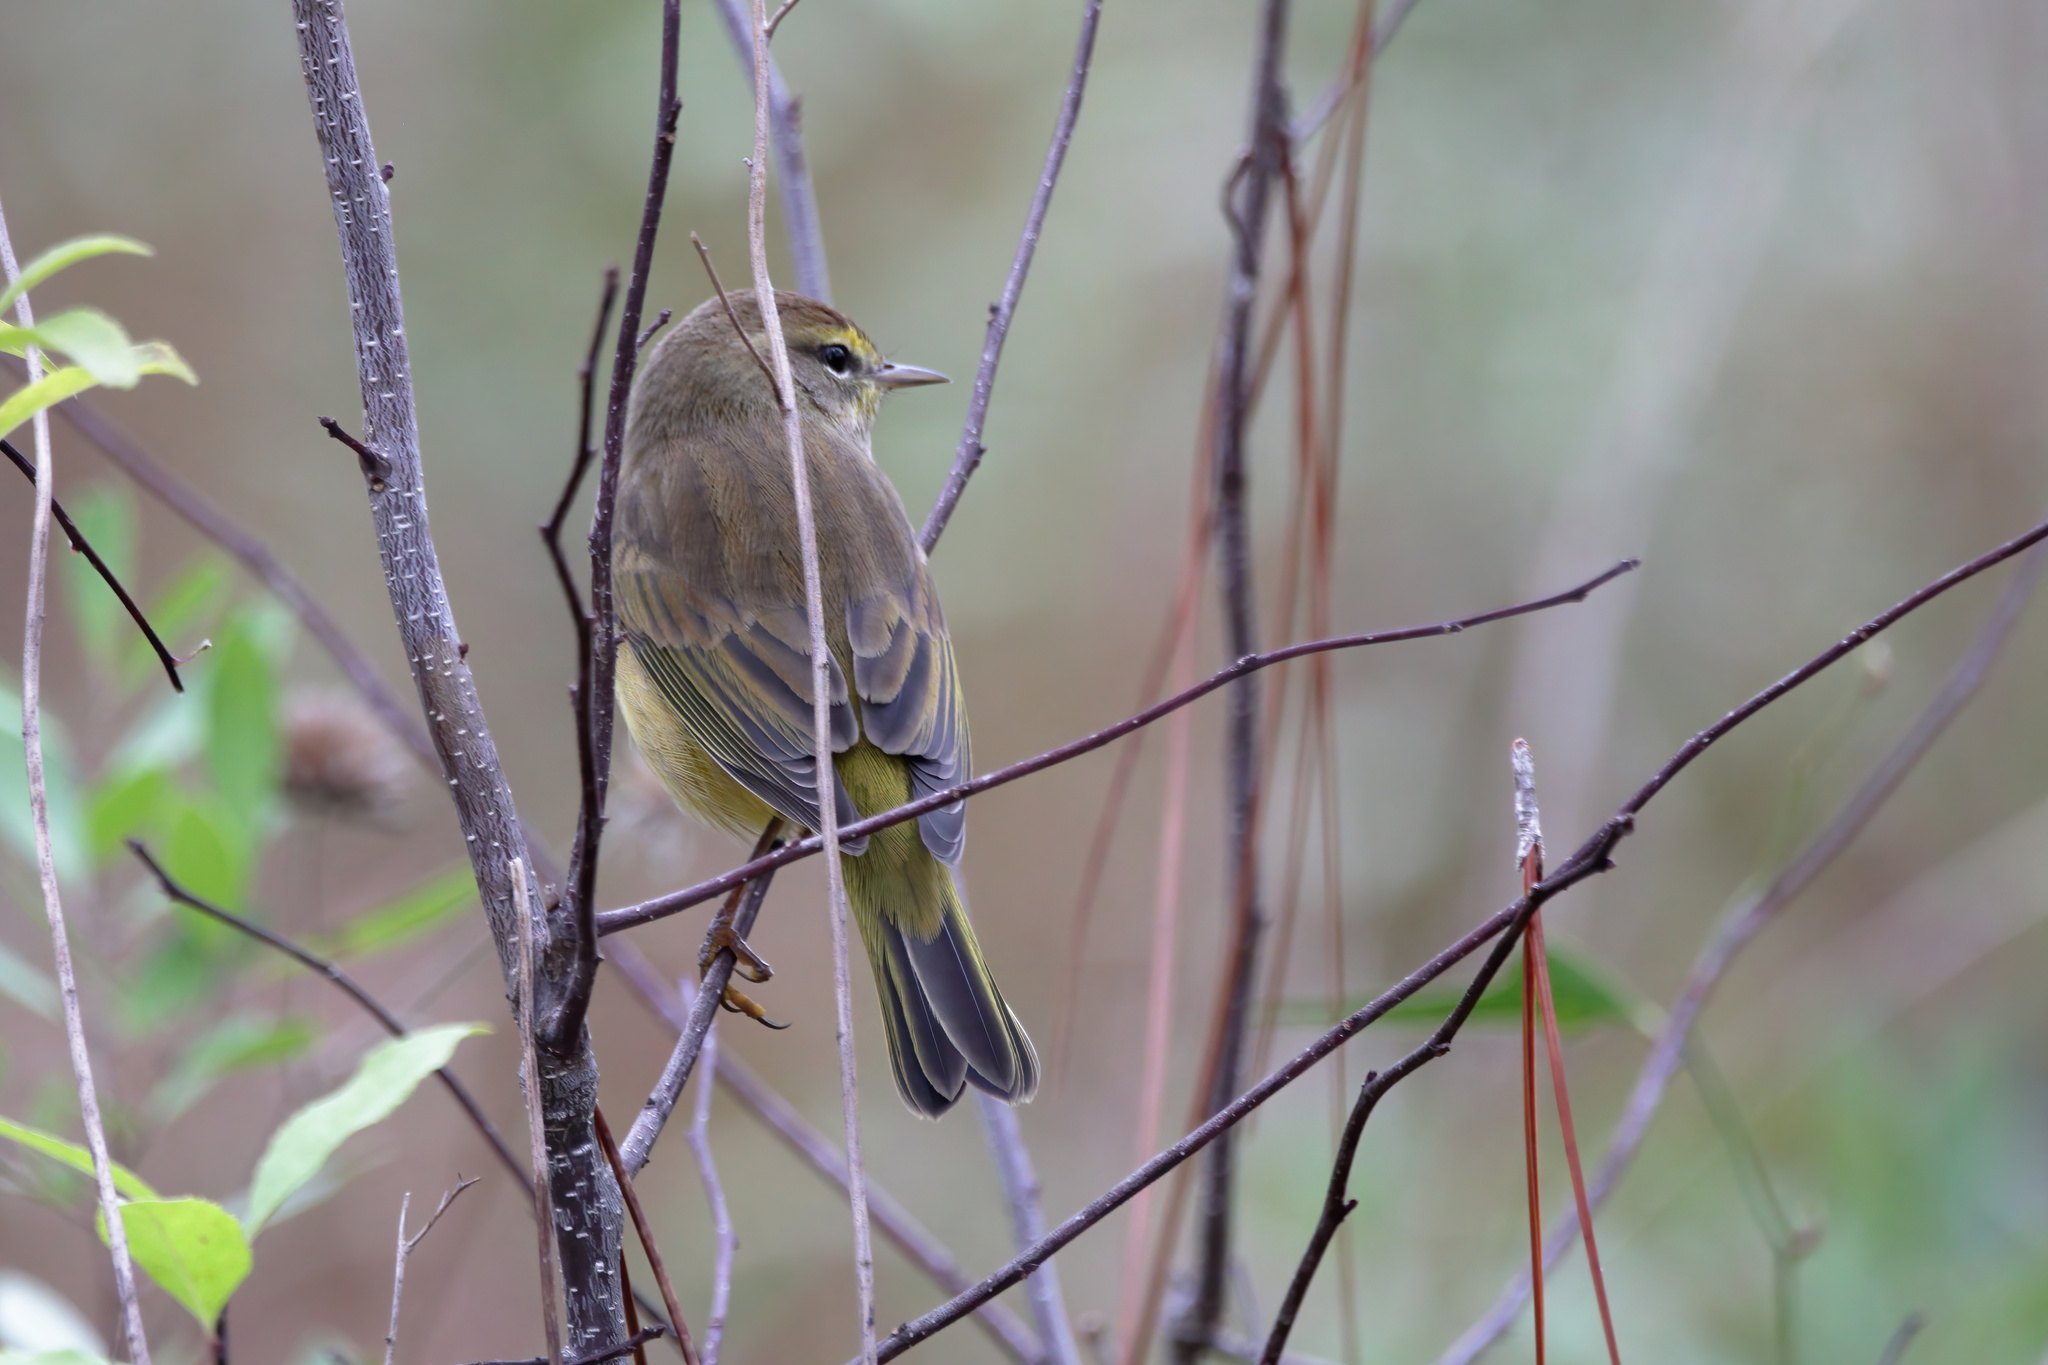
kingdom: Animalia
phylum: Chordata
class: Aves
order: Passeriformes
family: Parulidae
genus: Setophaga
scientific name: Setophaga palmarum
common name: Palm warbler
